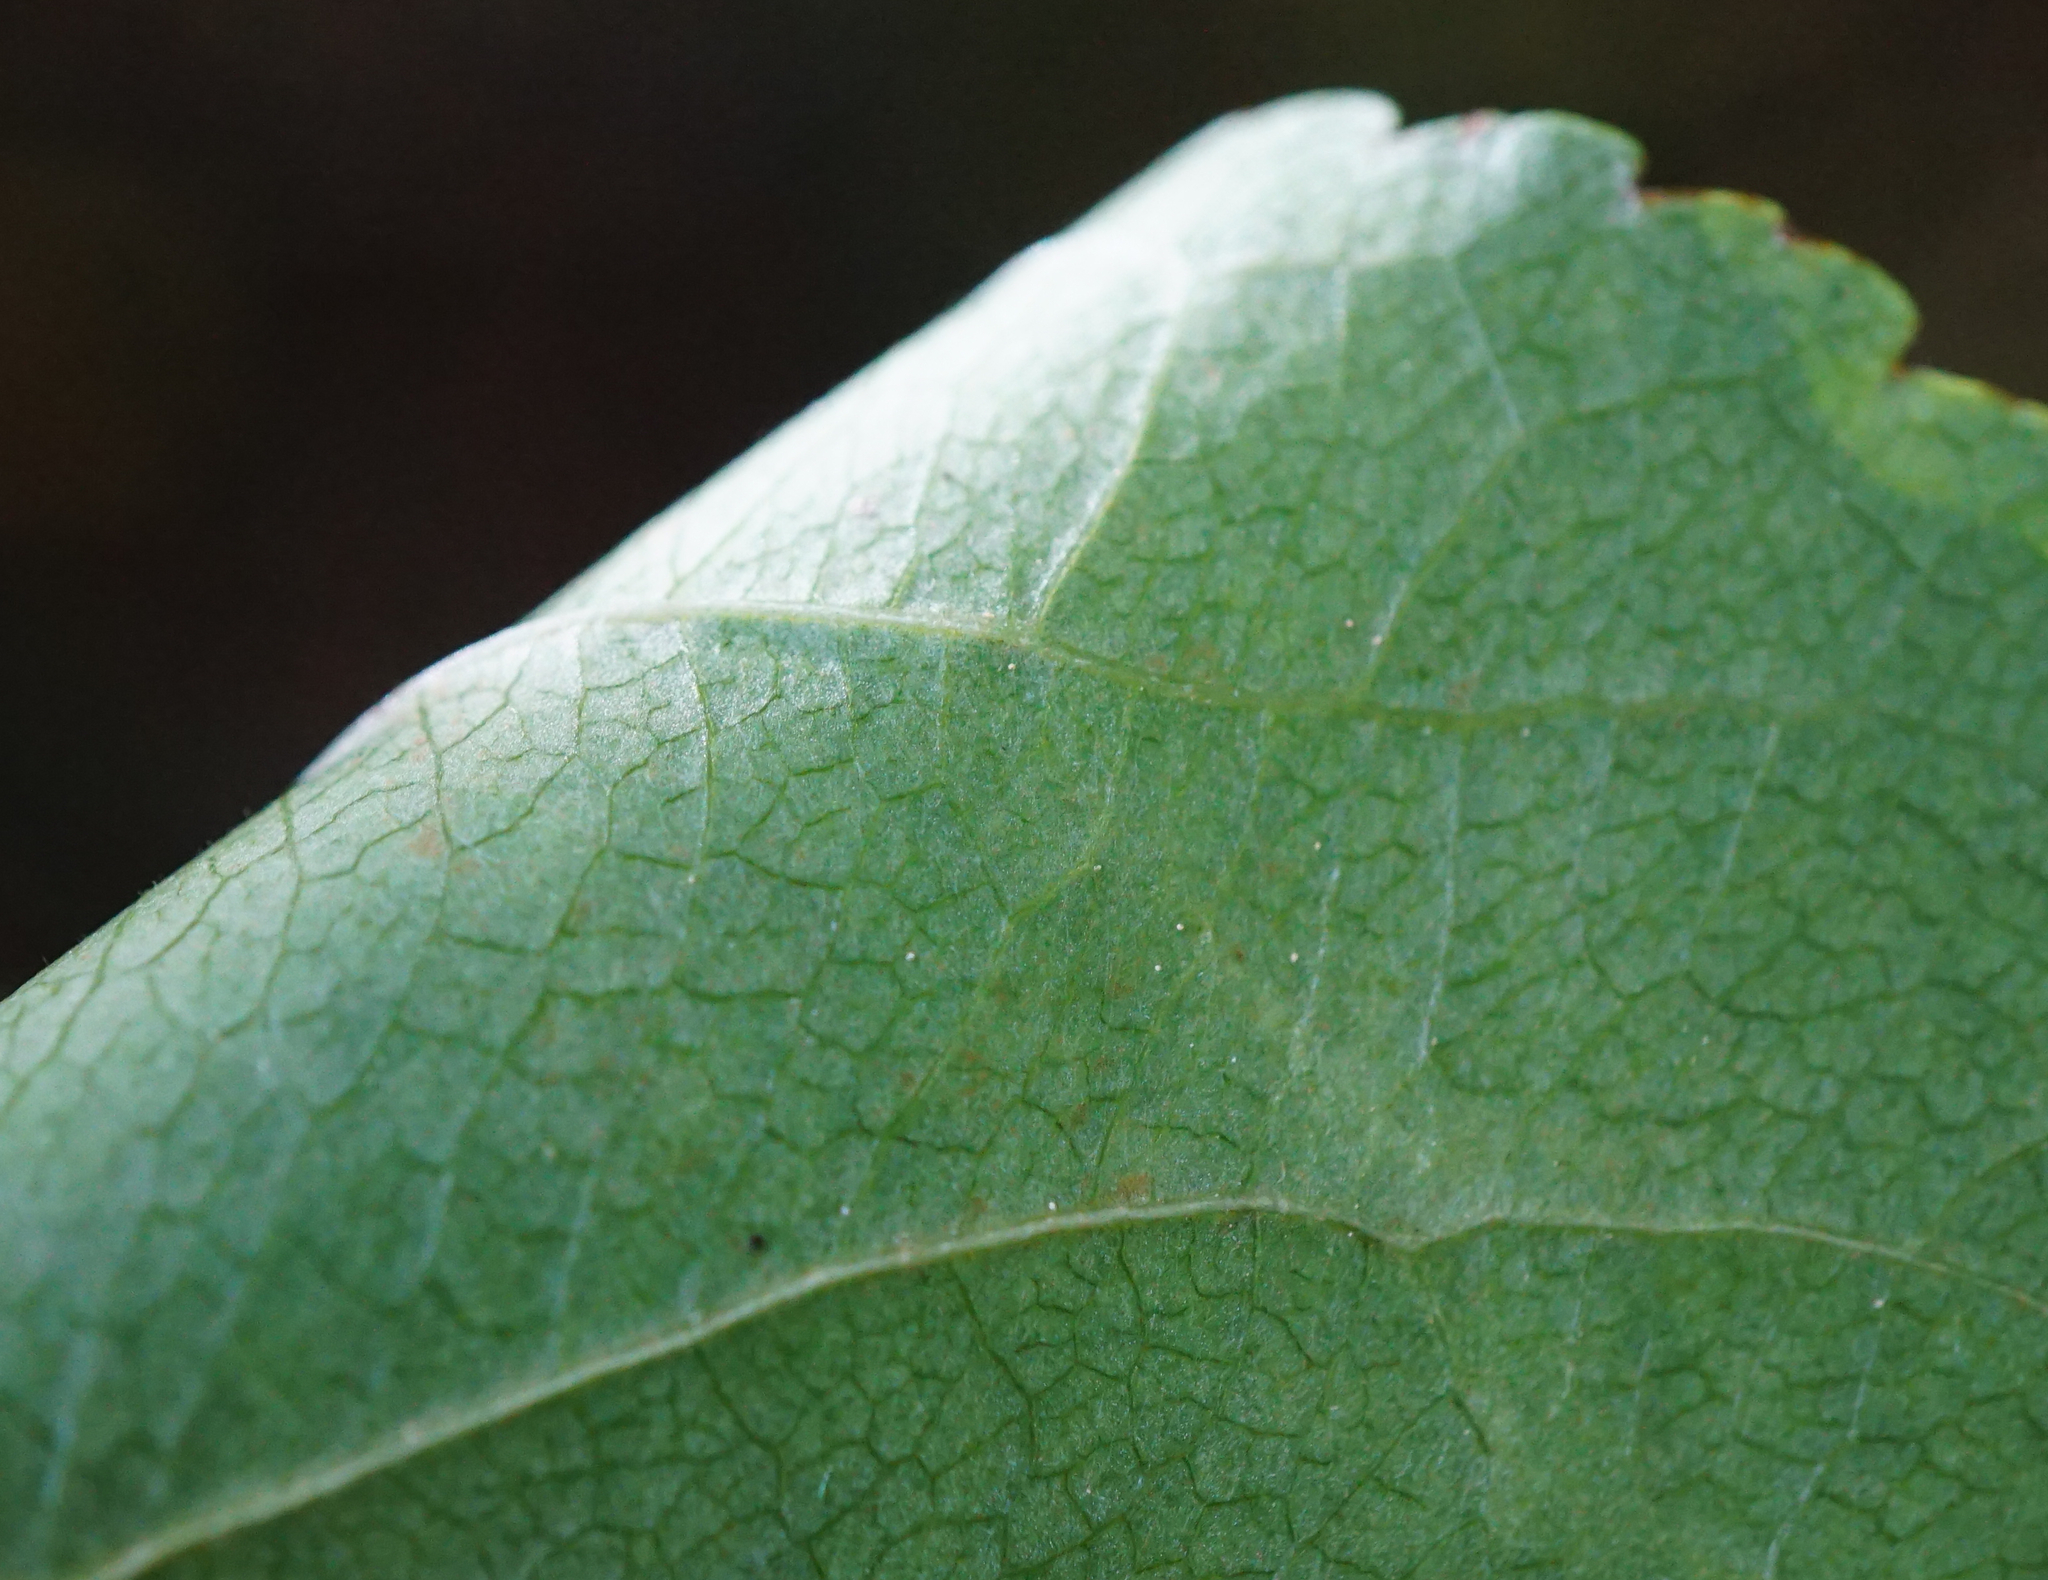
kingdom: Plantae
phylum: Tracheophyta
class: Magnoliopsida
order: Rosales
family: Rosaceae
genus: Malus
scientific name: Malus sylvestris
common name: Crab apple
